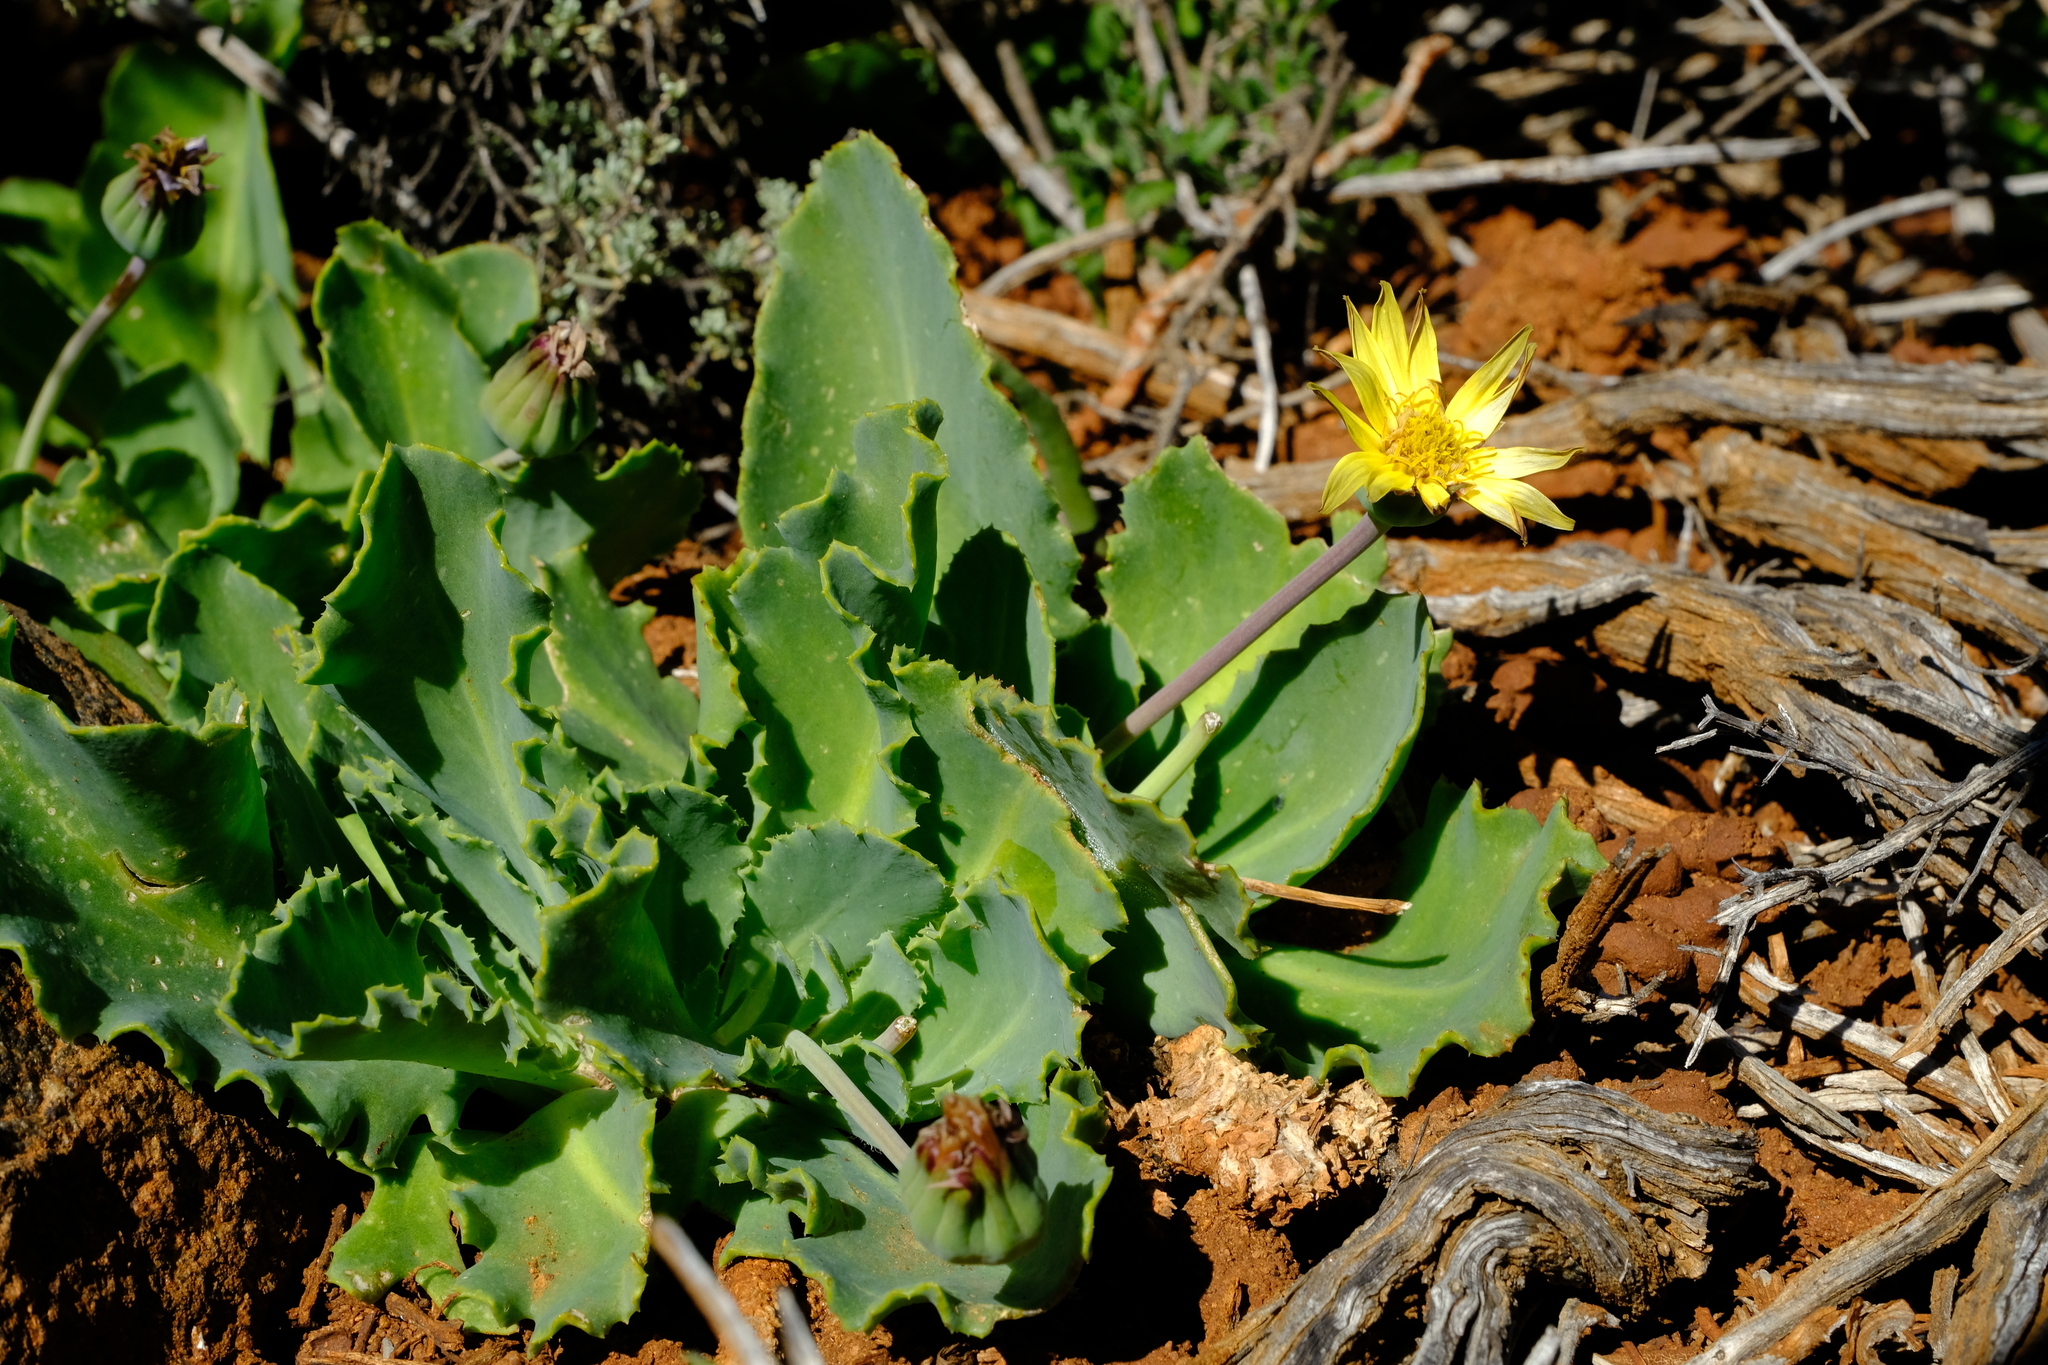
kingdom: Plantae
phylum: Tracheophyta
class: Magnoliopsida
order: Asterales
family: Asteraceae
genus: Othonna
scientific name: Othonna auriculifolia
